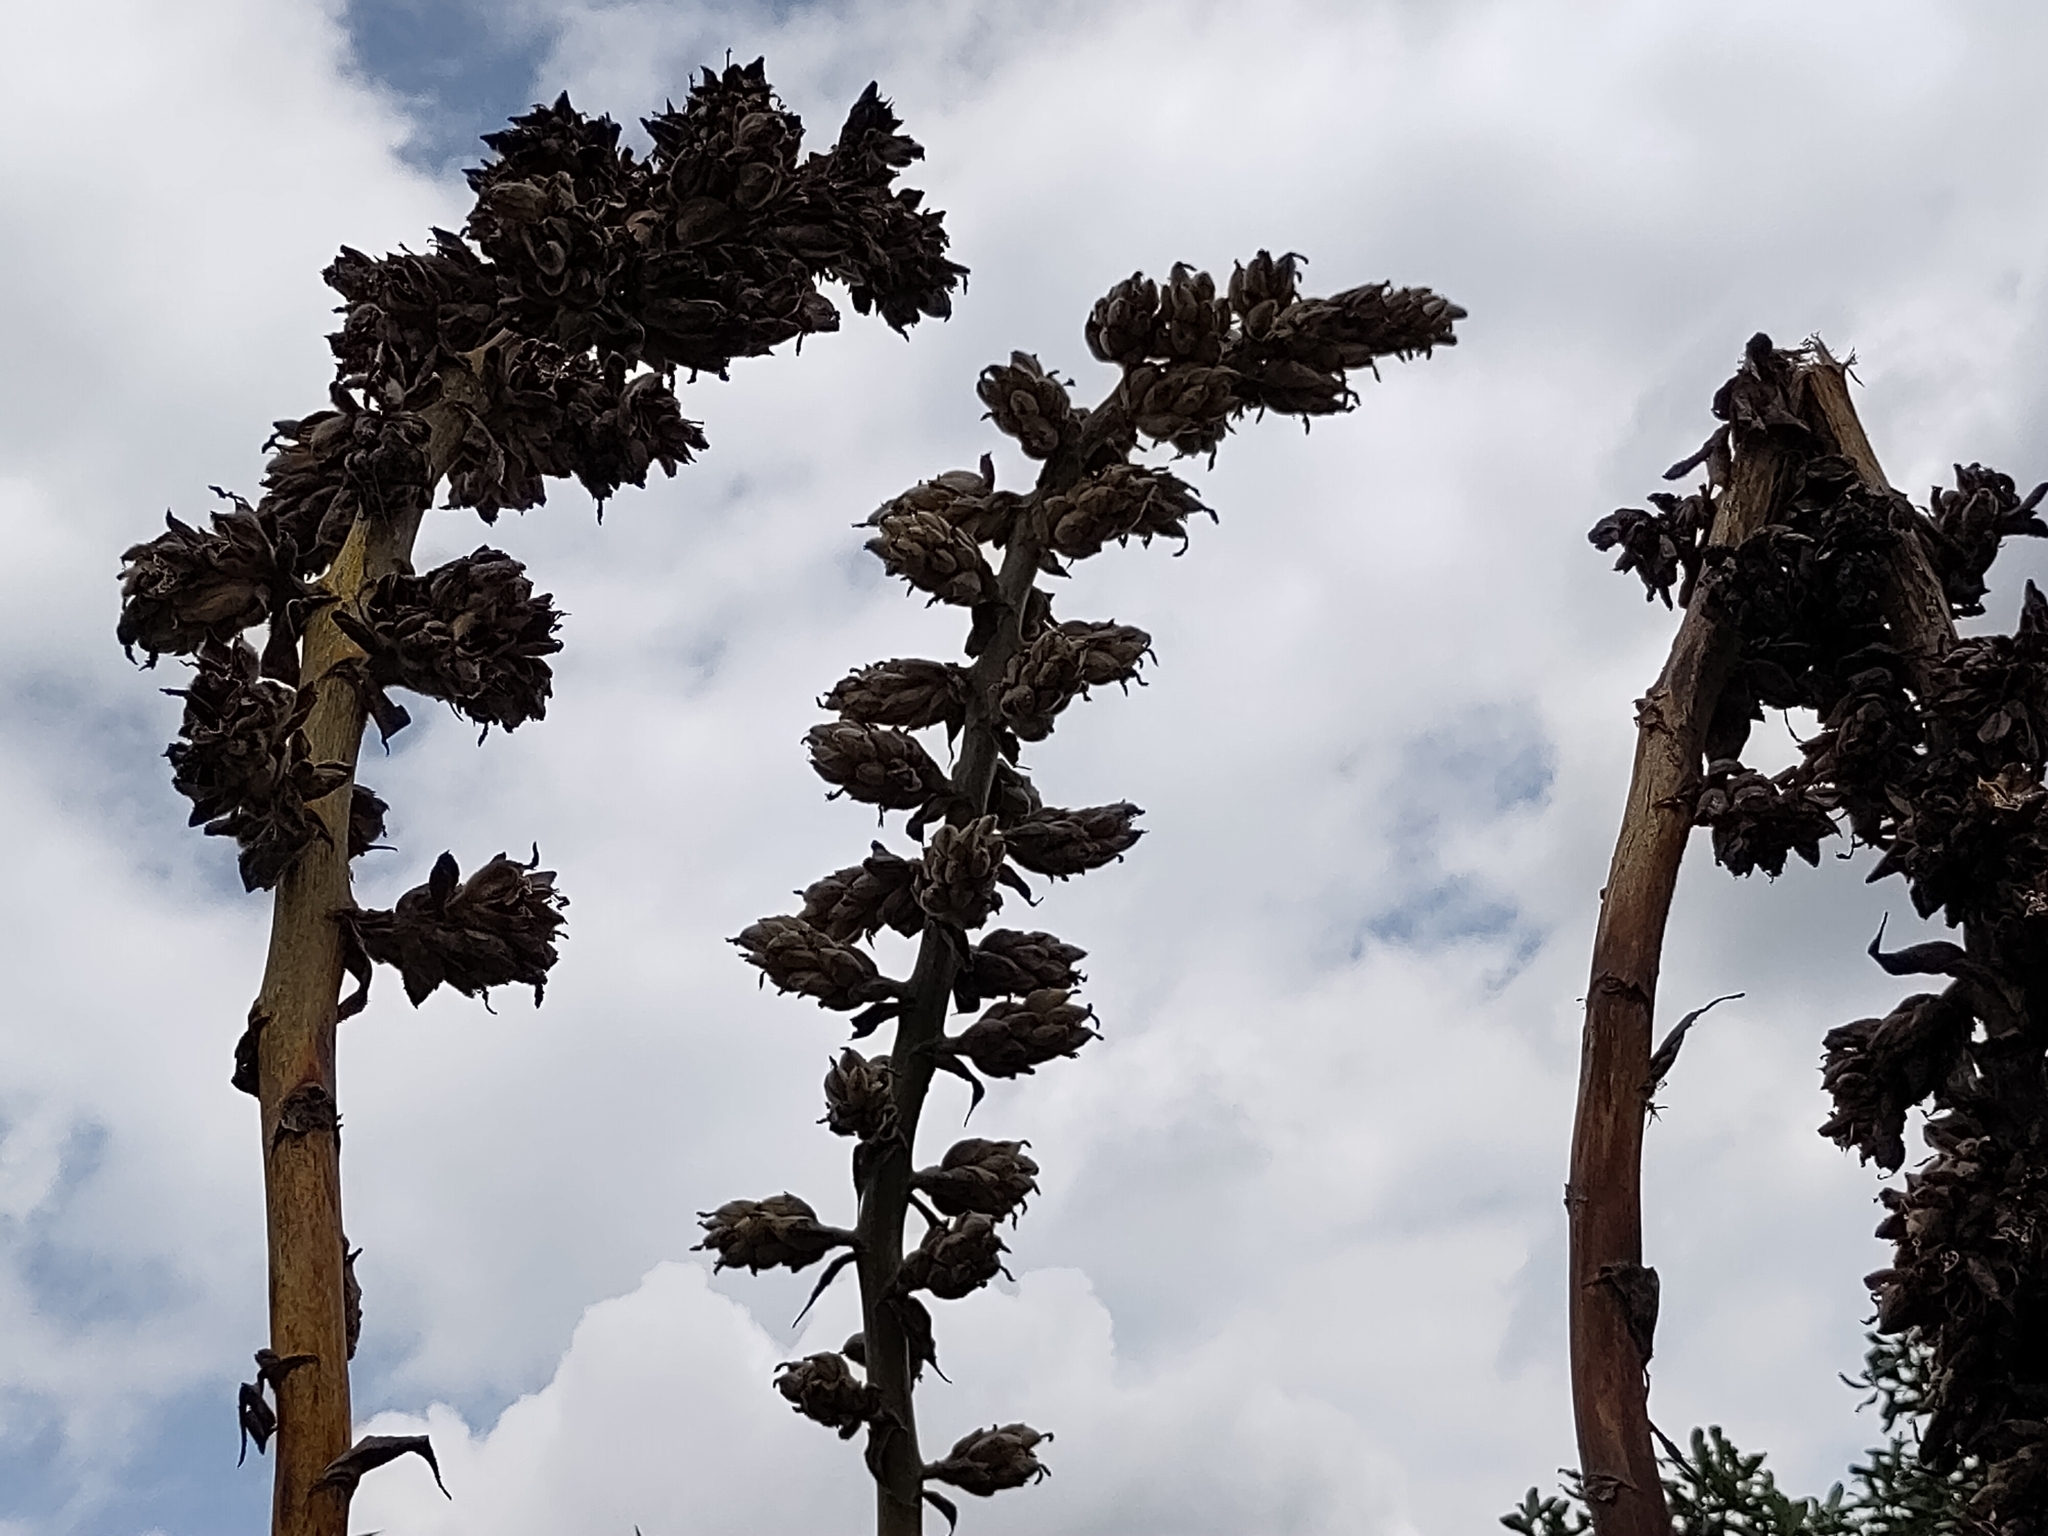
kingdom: Plantae
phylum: Tracheophyta
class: Liliopsida
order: Poales
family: Bromeliaceae
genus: Puya
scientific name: Puya glomerifera
